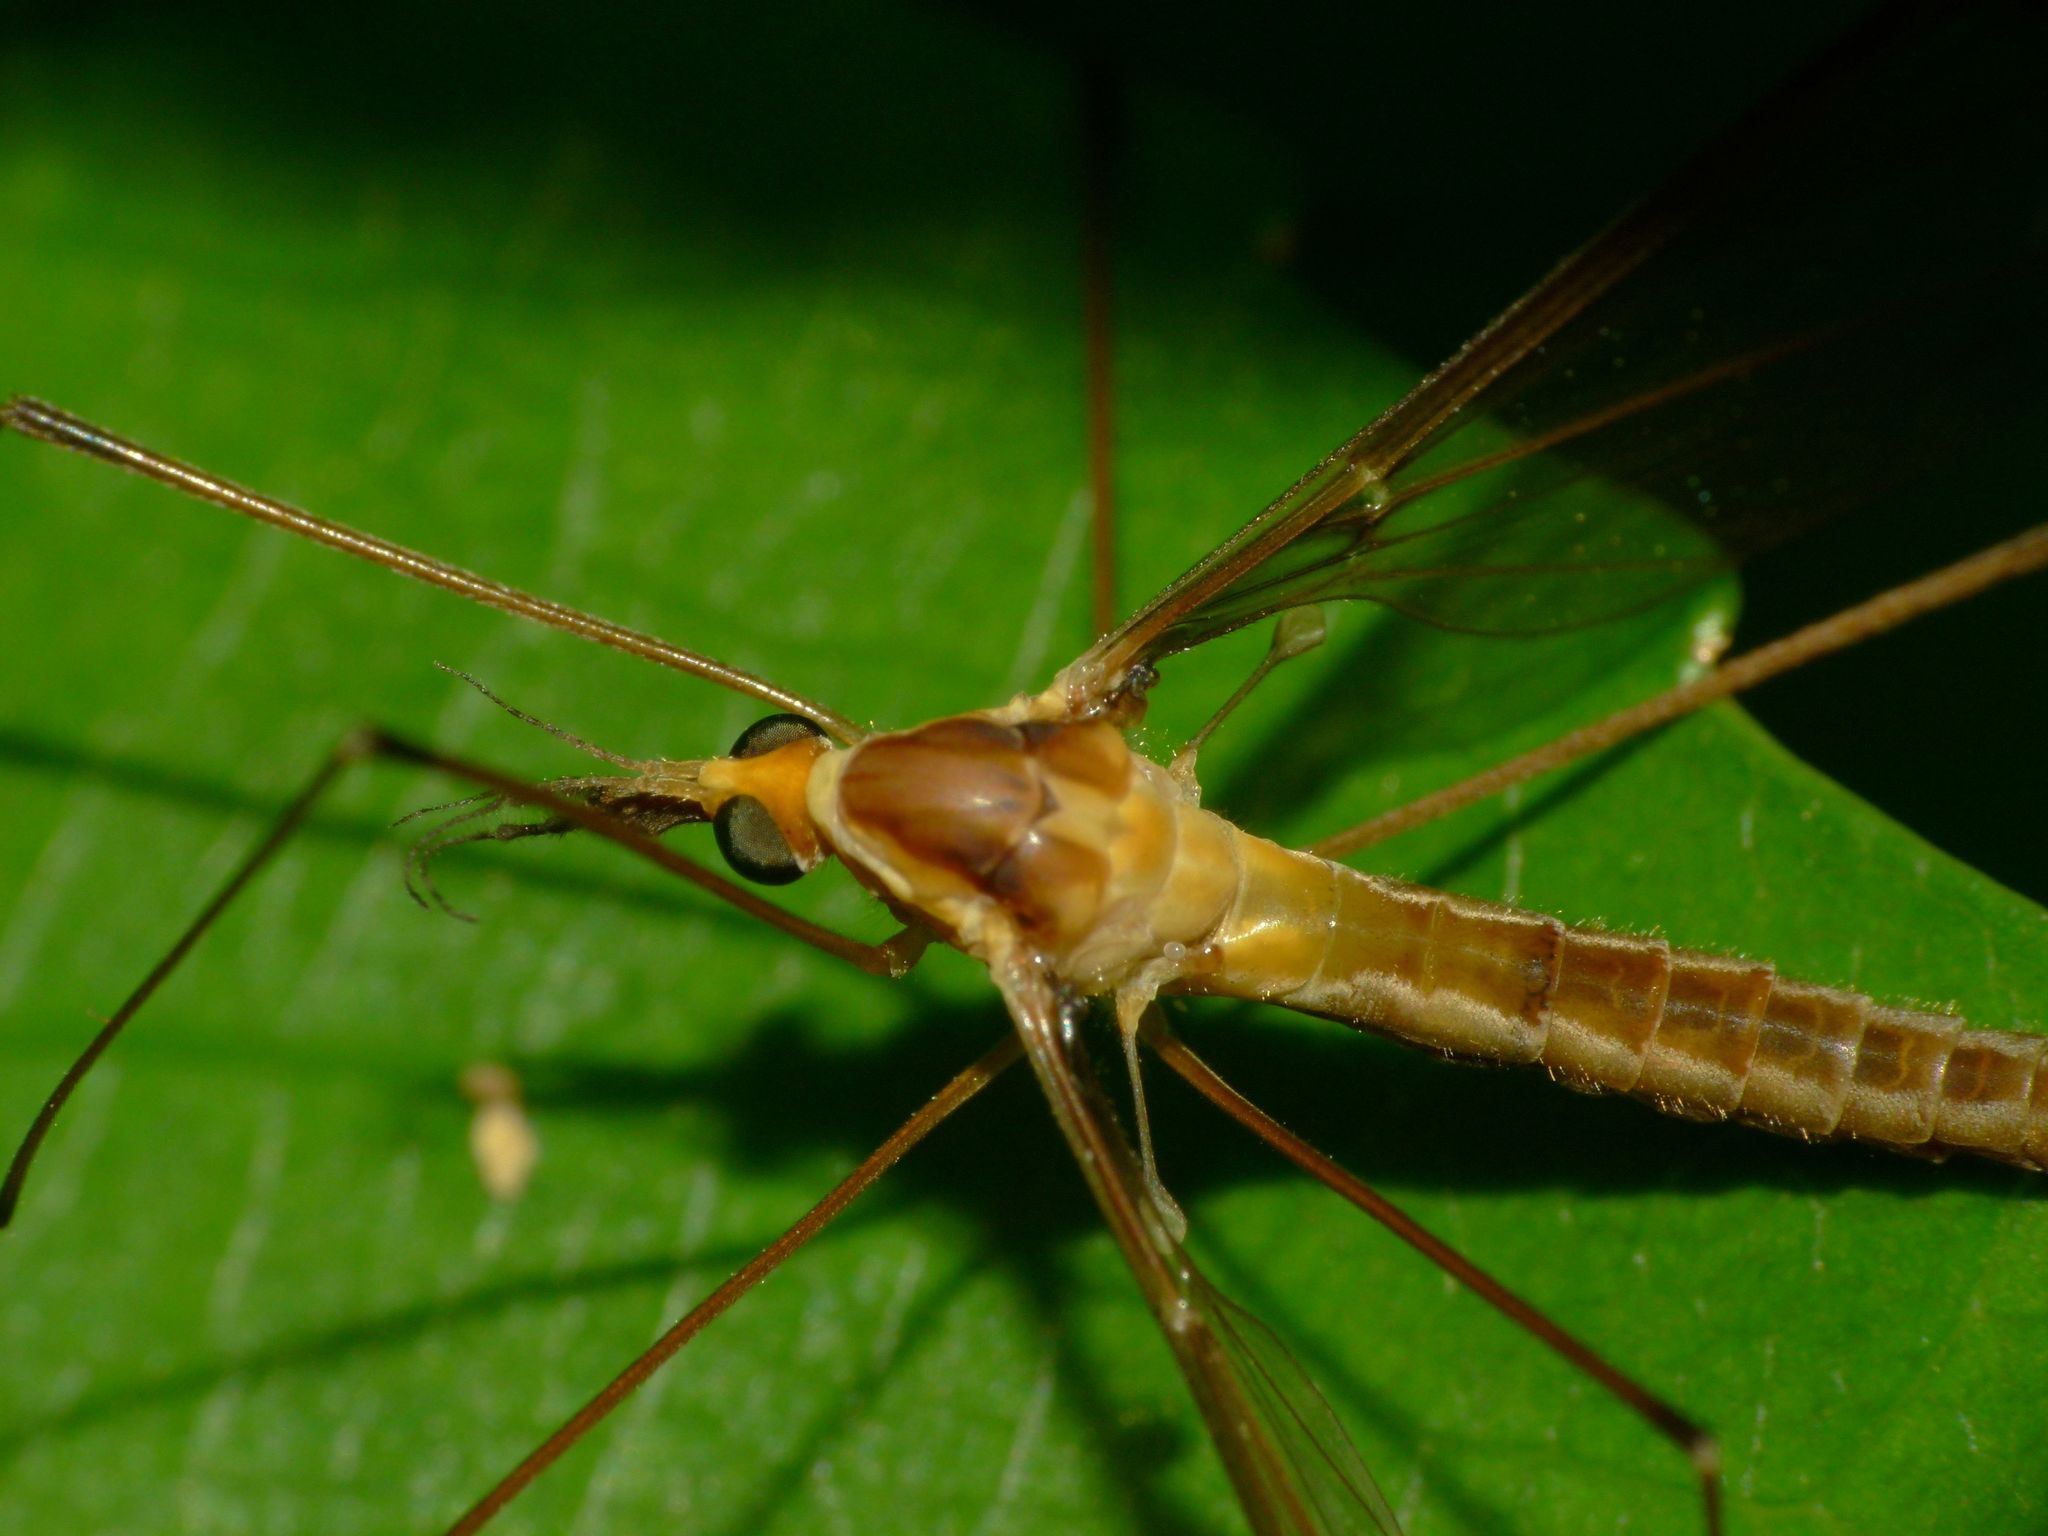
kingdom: Animalia
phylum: Arthropoda
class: Insecta
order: Diptera
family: Tipulidae
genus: Leptotarsus
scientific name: Leptotarsus albistigma
